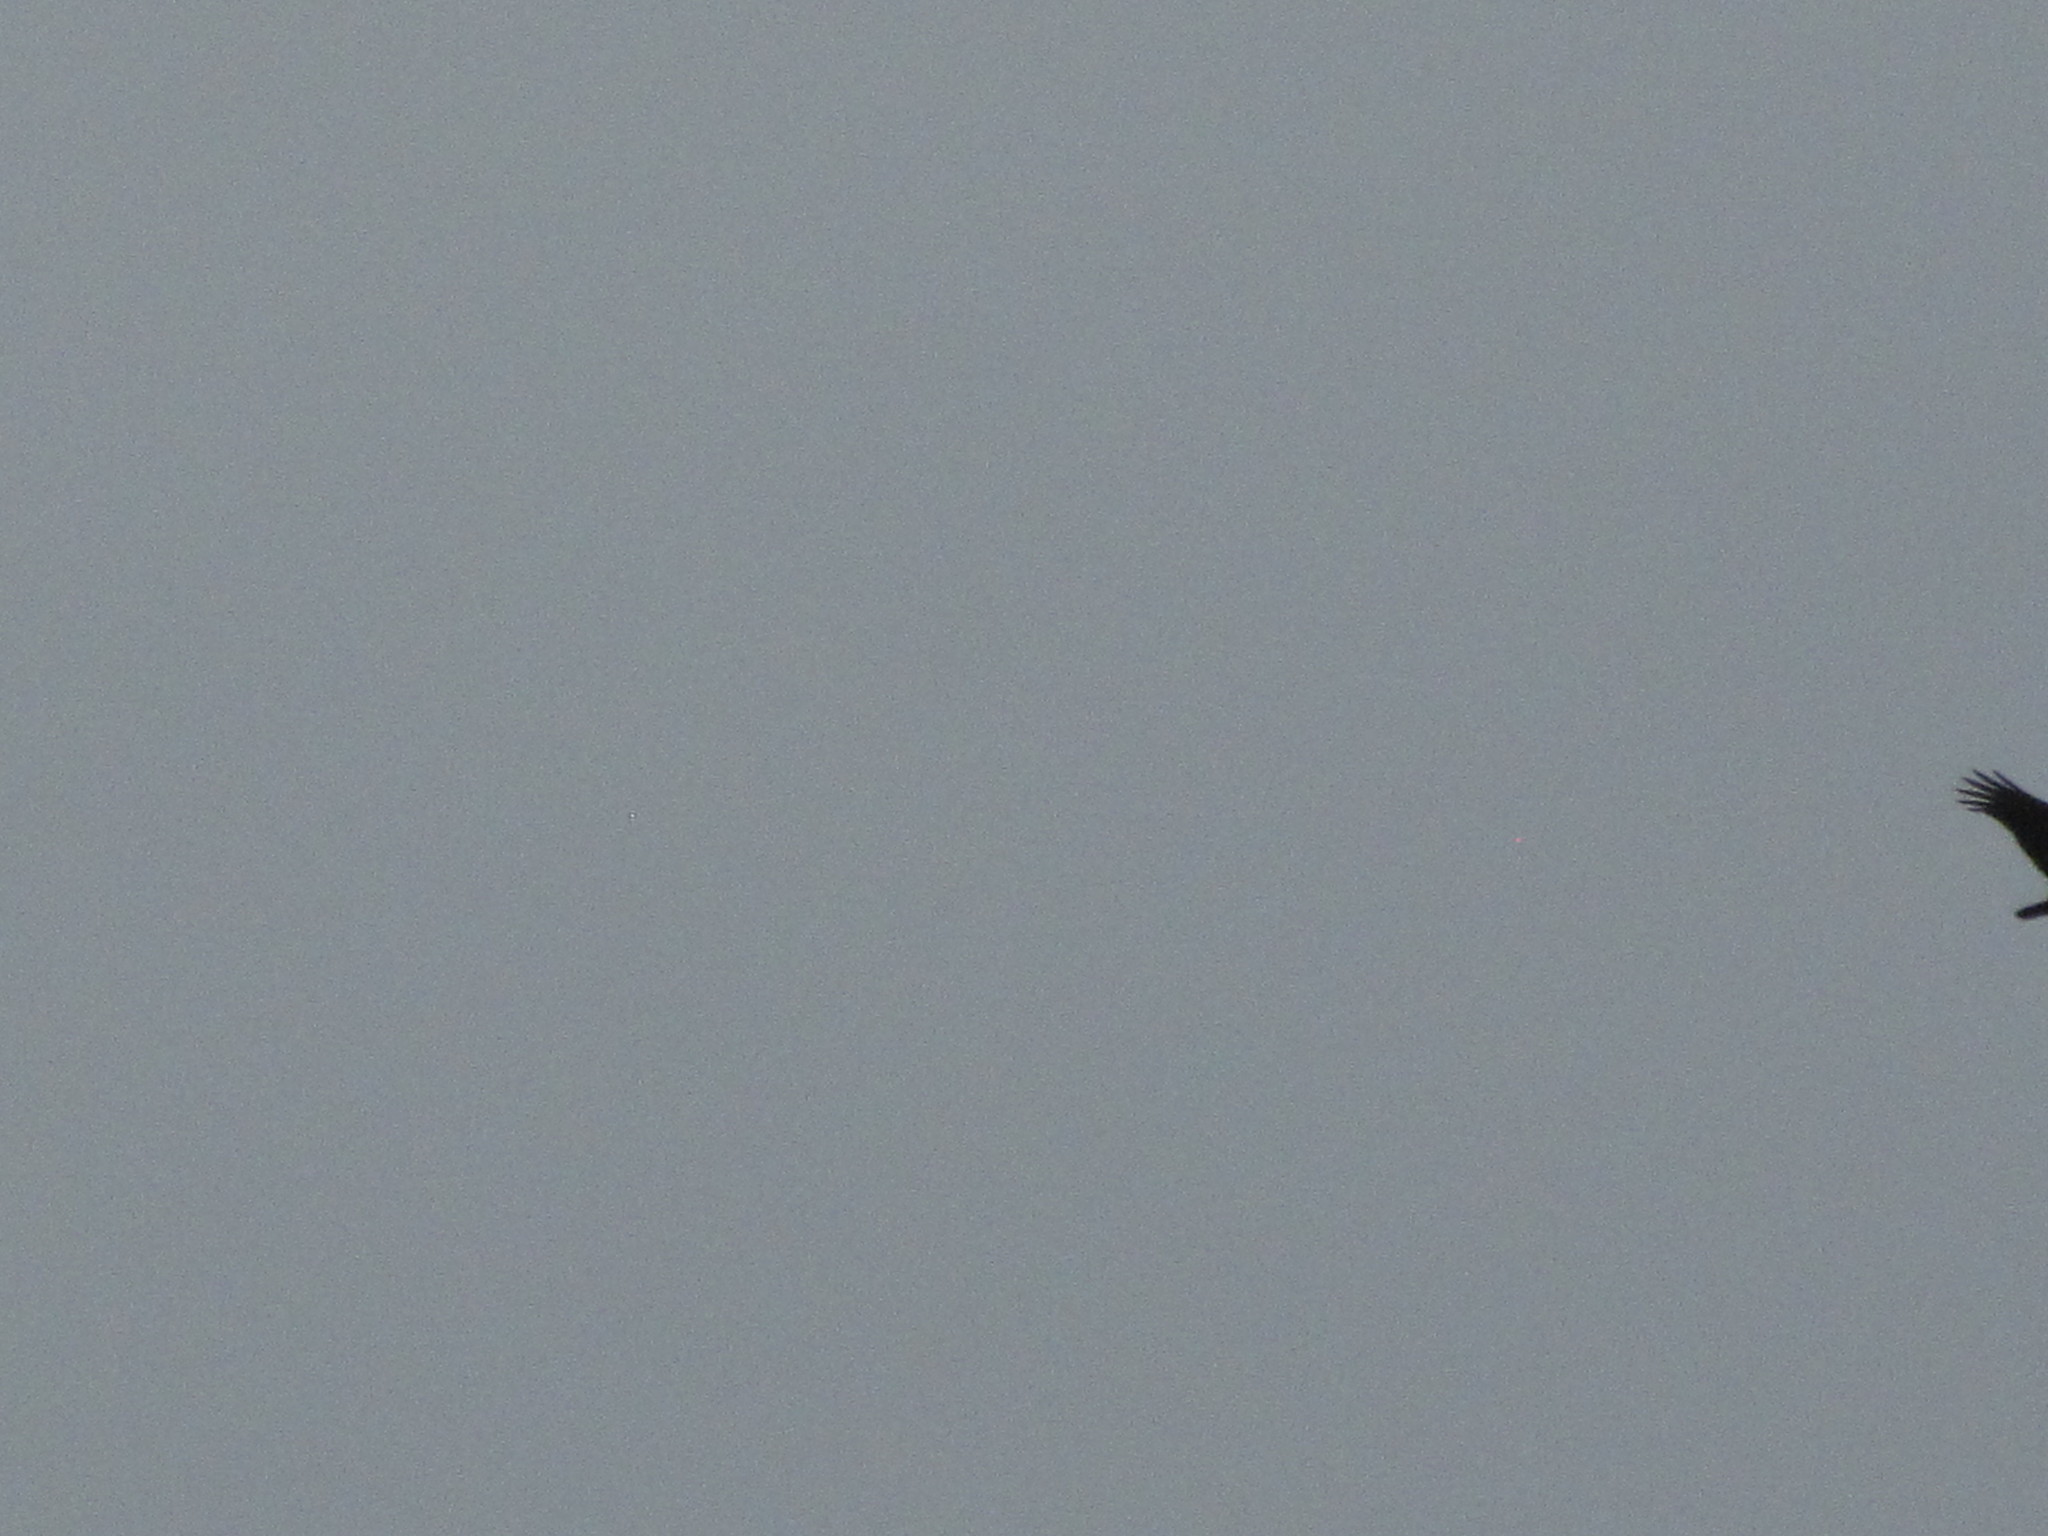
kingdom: Animalia
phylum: Chordata
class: Aves
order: Accipitriformes
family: Cathartidae
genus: Cathartes
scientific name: Cathartes aura
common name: Turkey vulture
